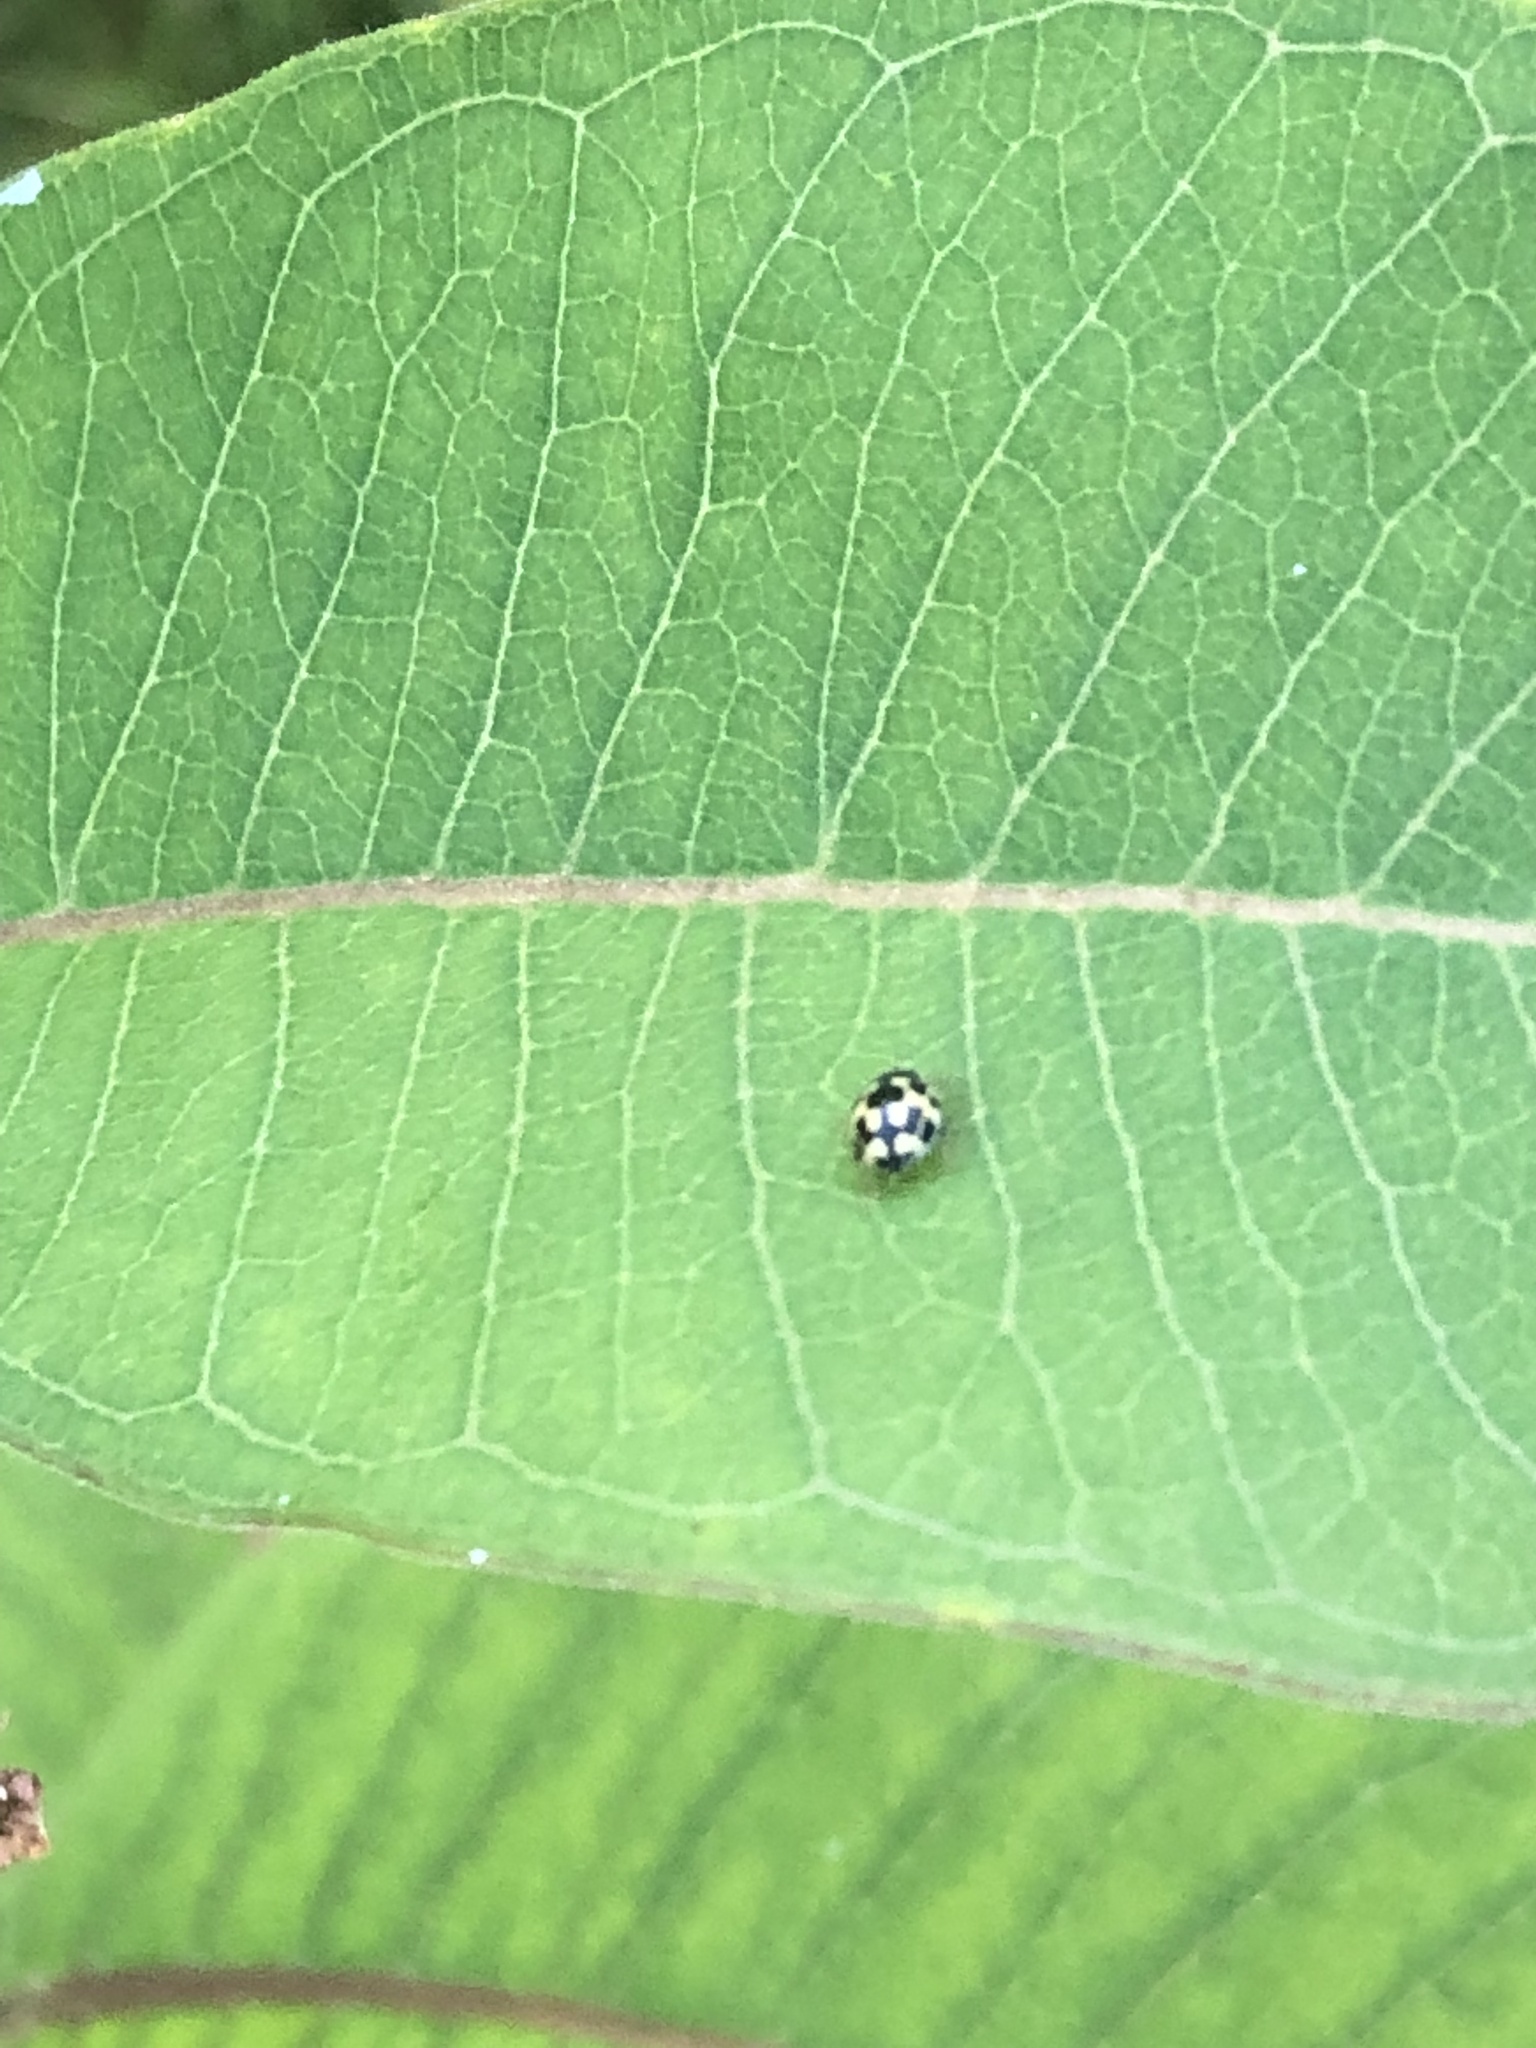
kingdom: Animalia
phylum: Arthropoda
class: Insecta
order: Coleoptera
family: Coccinellidae
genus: Propylaea
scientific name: Propylaea quatuordecimpunctata
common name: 14-spotted ladybird beetle
